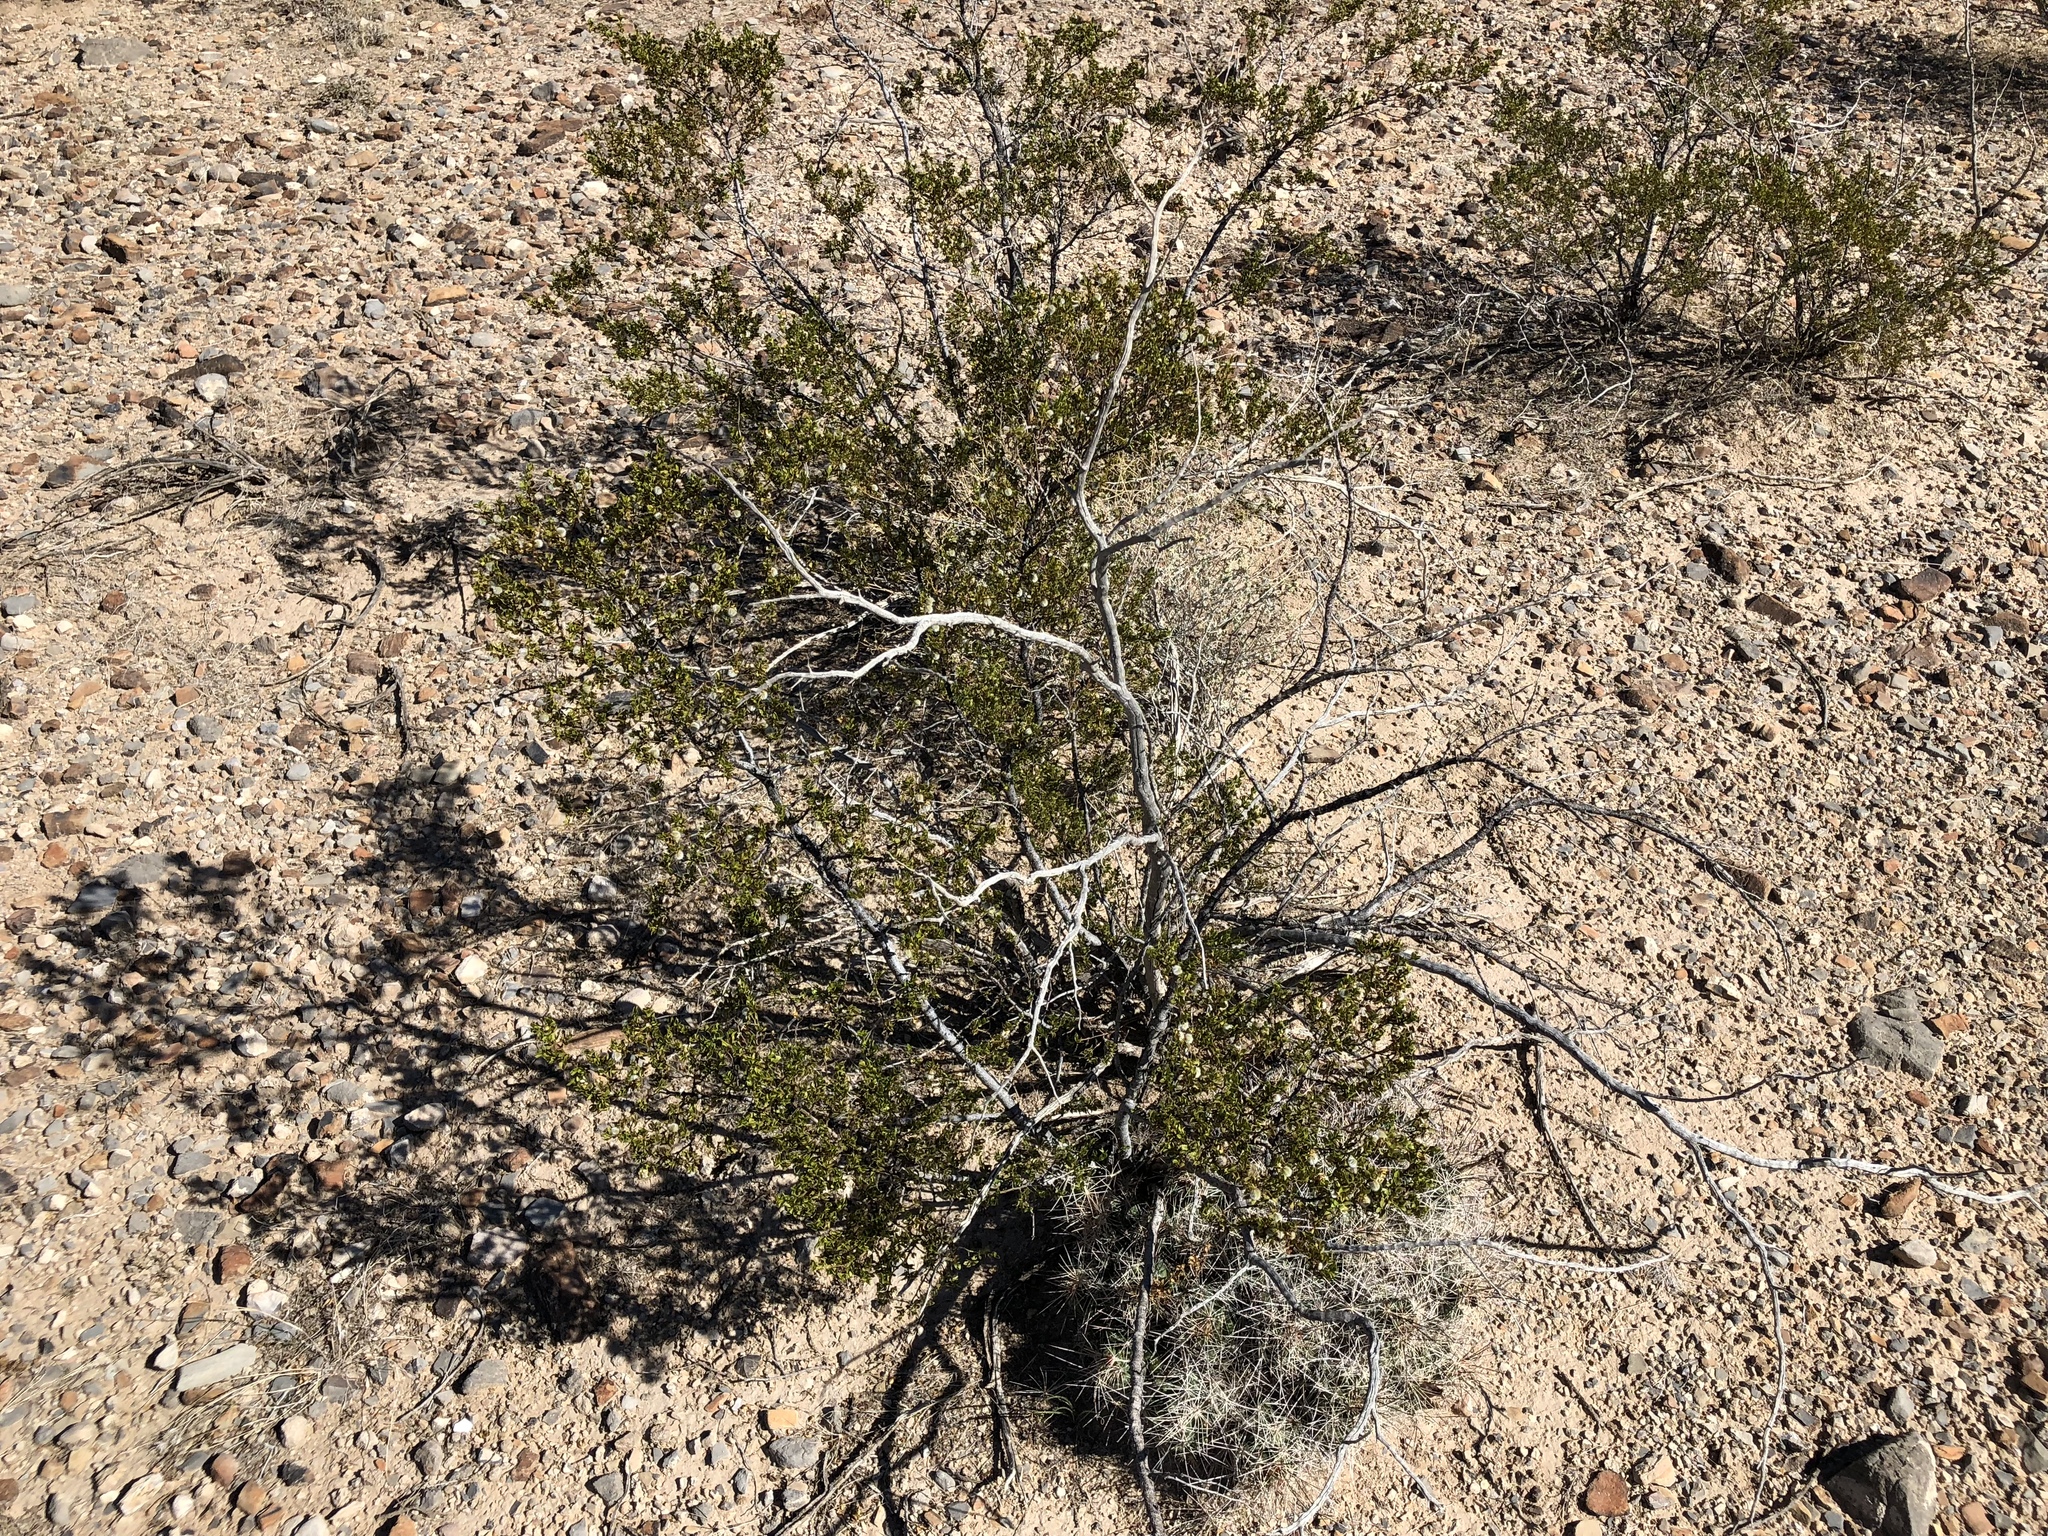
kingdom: Plantae
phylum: Tracheophyta
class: Magnoliopsida
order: Zygophyllales
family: Zygophyllaceae
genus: Larrea
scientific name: Larrea tridentata
